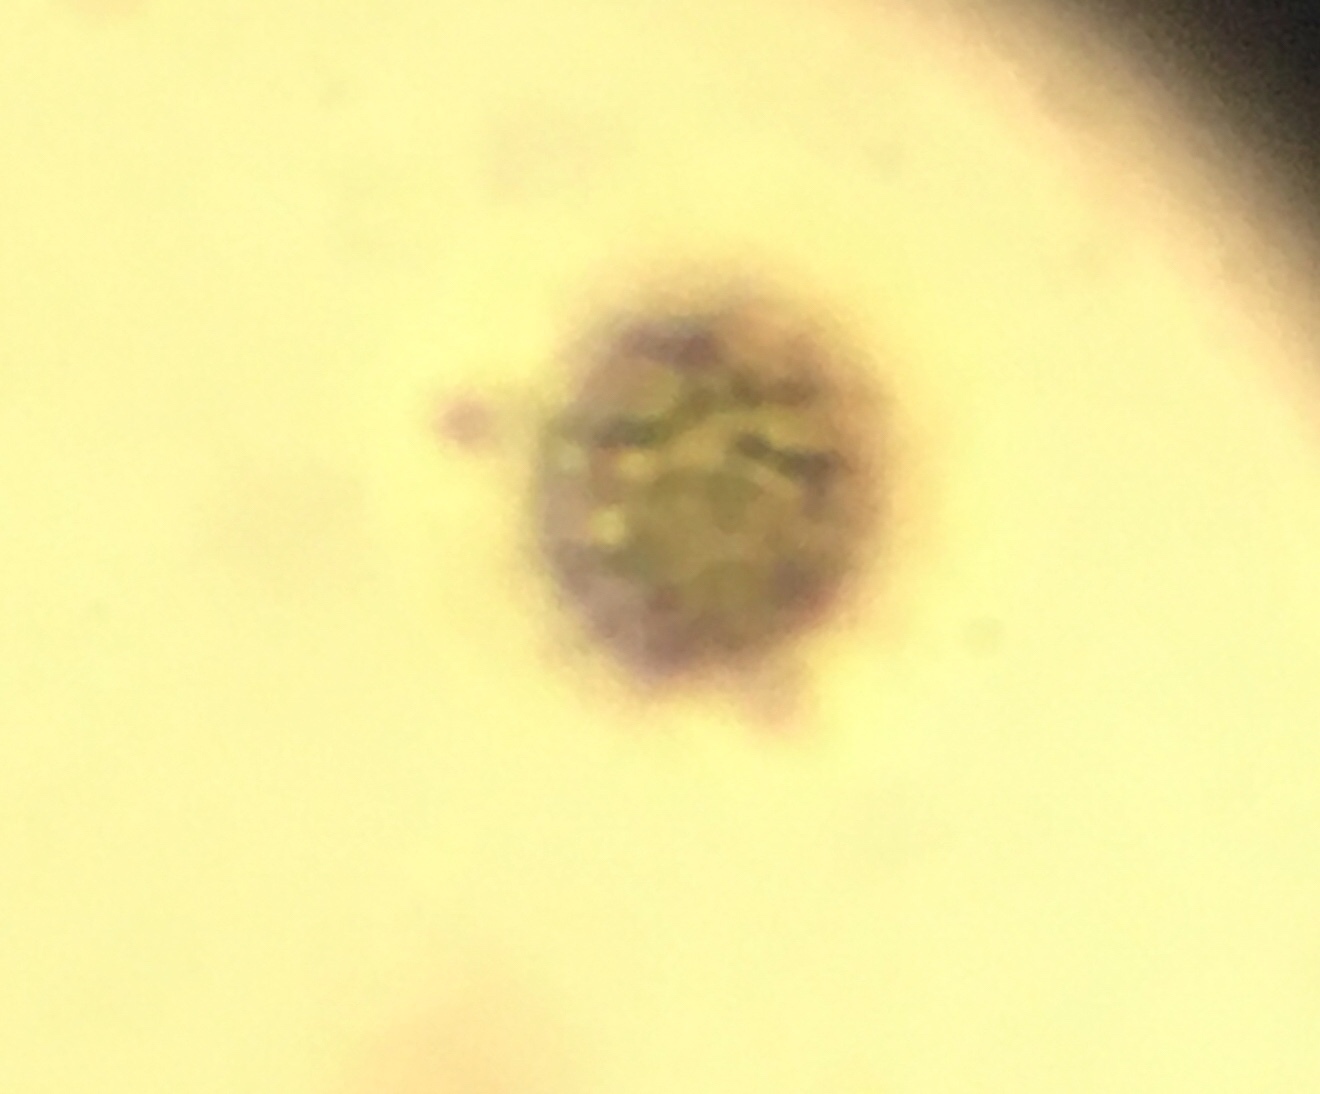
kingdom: Fungi
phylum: Basidiomycota
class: Agaricomycetes
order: Russulales
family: Russulaceae
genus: Russula
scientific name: Russula flavisiccans
